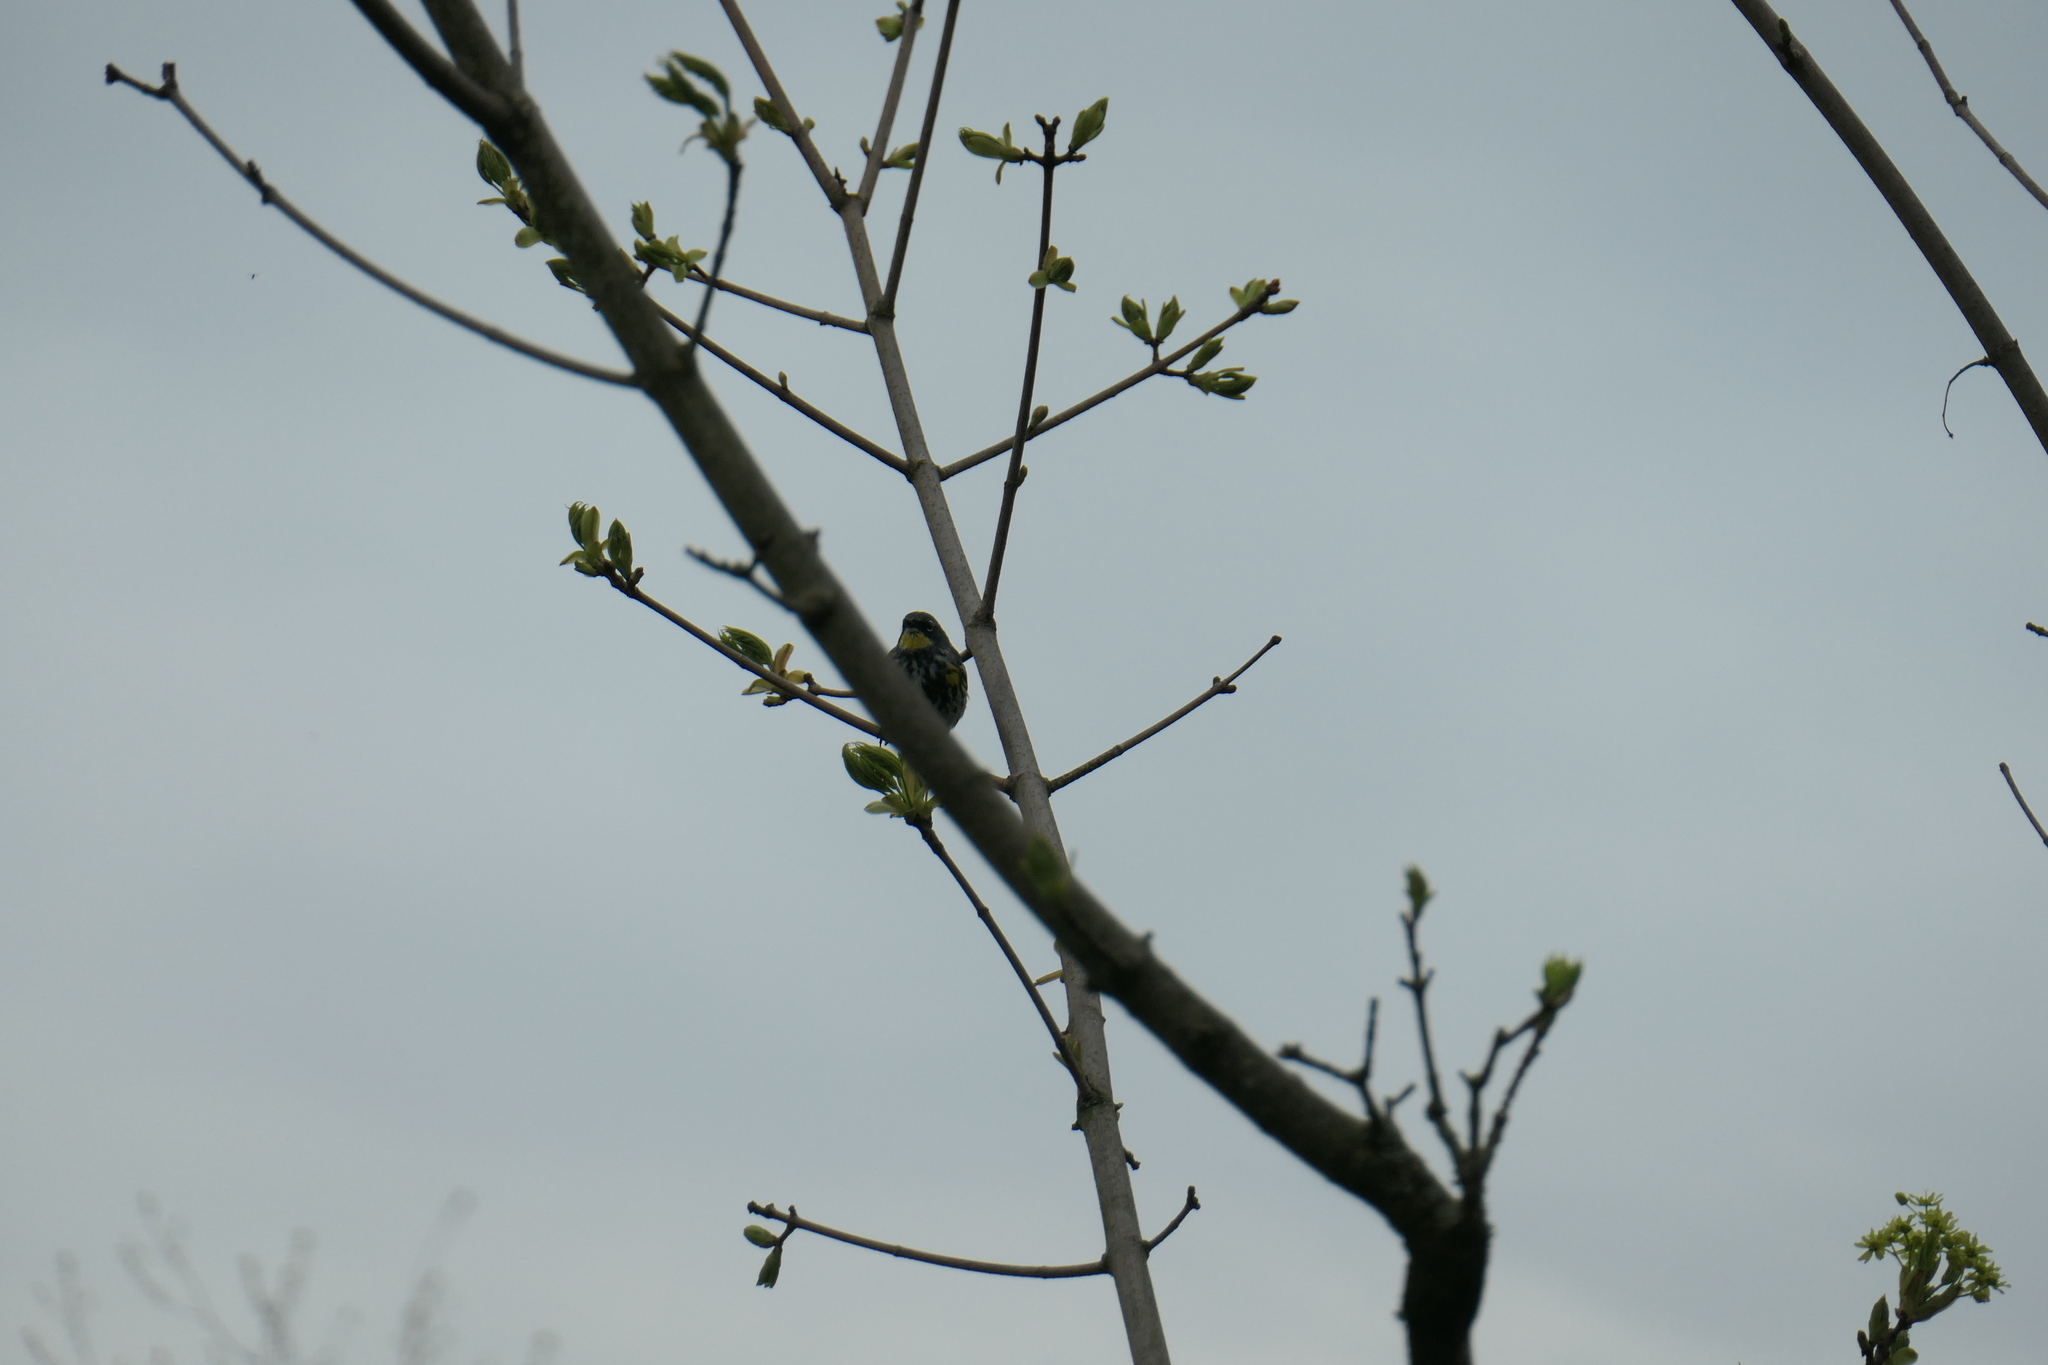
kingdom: Animalia
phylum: Chordata
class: Aves
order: Passeriformes
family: Parulidae
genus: Setophaga
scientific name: Setophaga coronata
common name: Myrtle warbler
